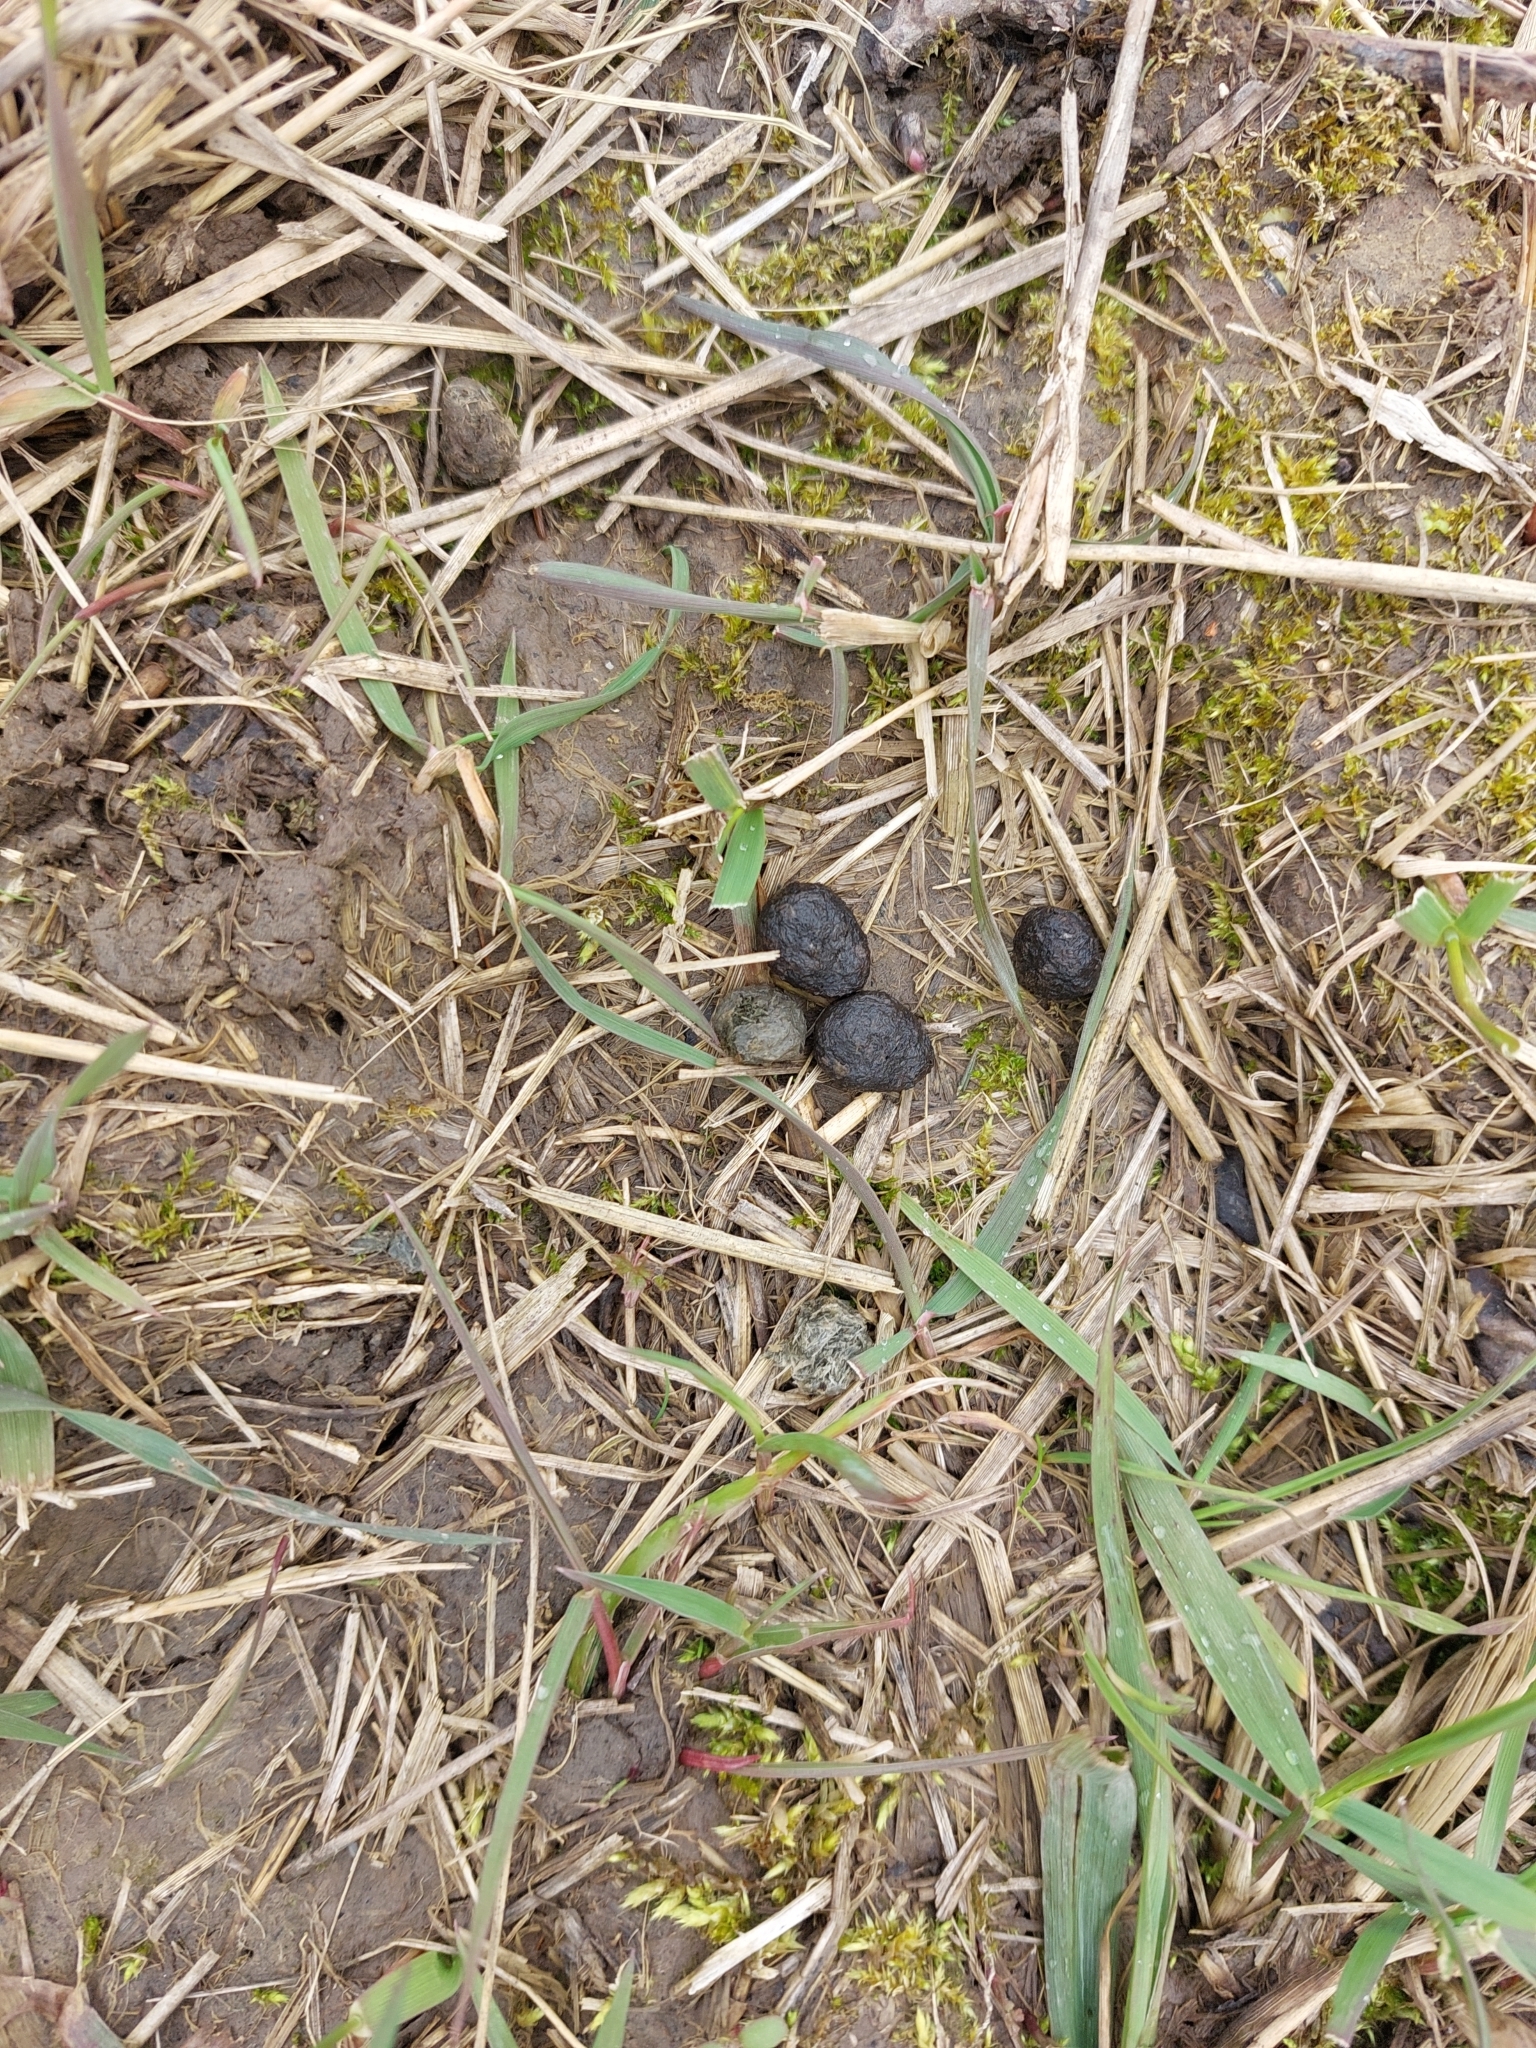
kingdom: Animalia
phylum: Chordata
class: Mammalia
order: Lagomorpha
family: Leporidae
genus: Oryctolagus
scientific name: Oryctolagus cuniculus
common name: European rabbit
